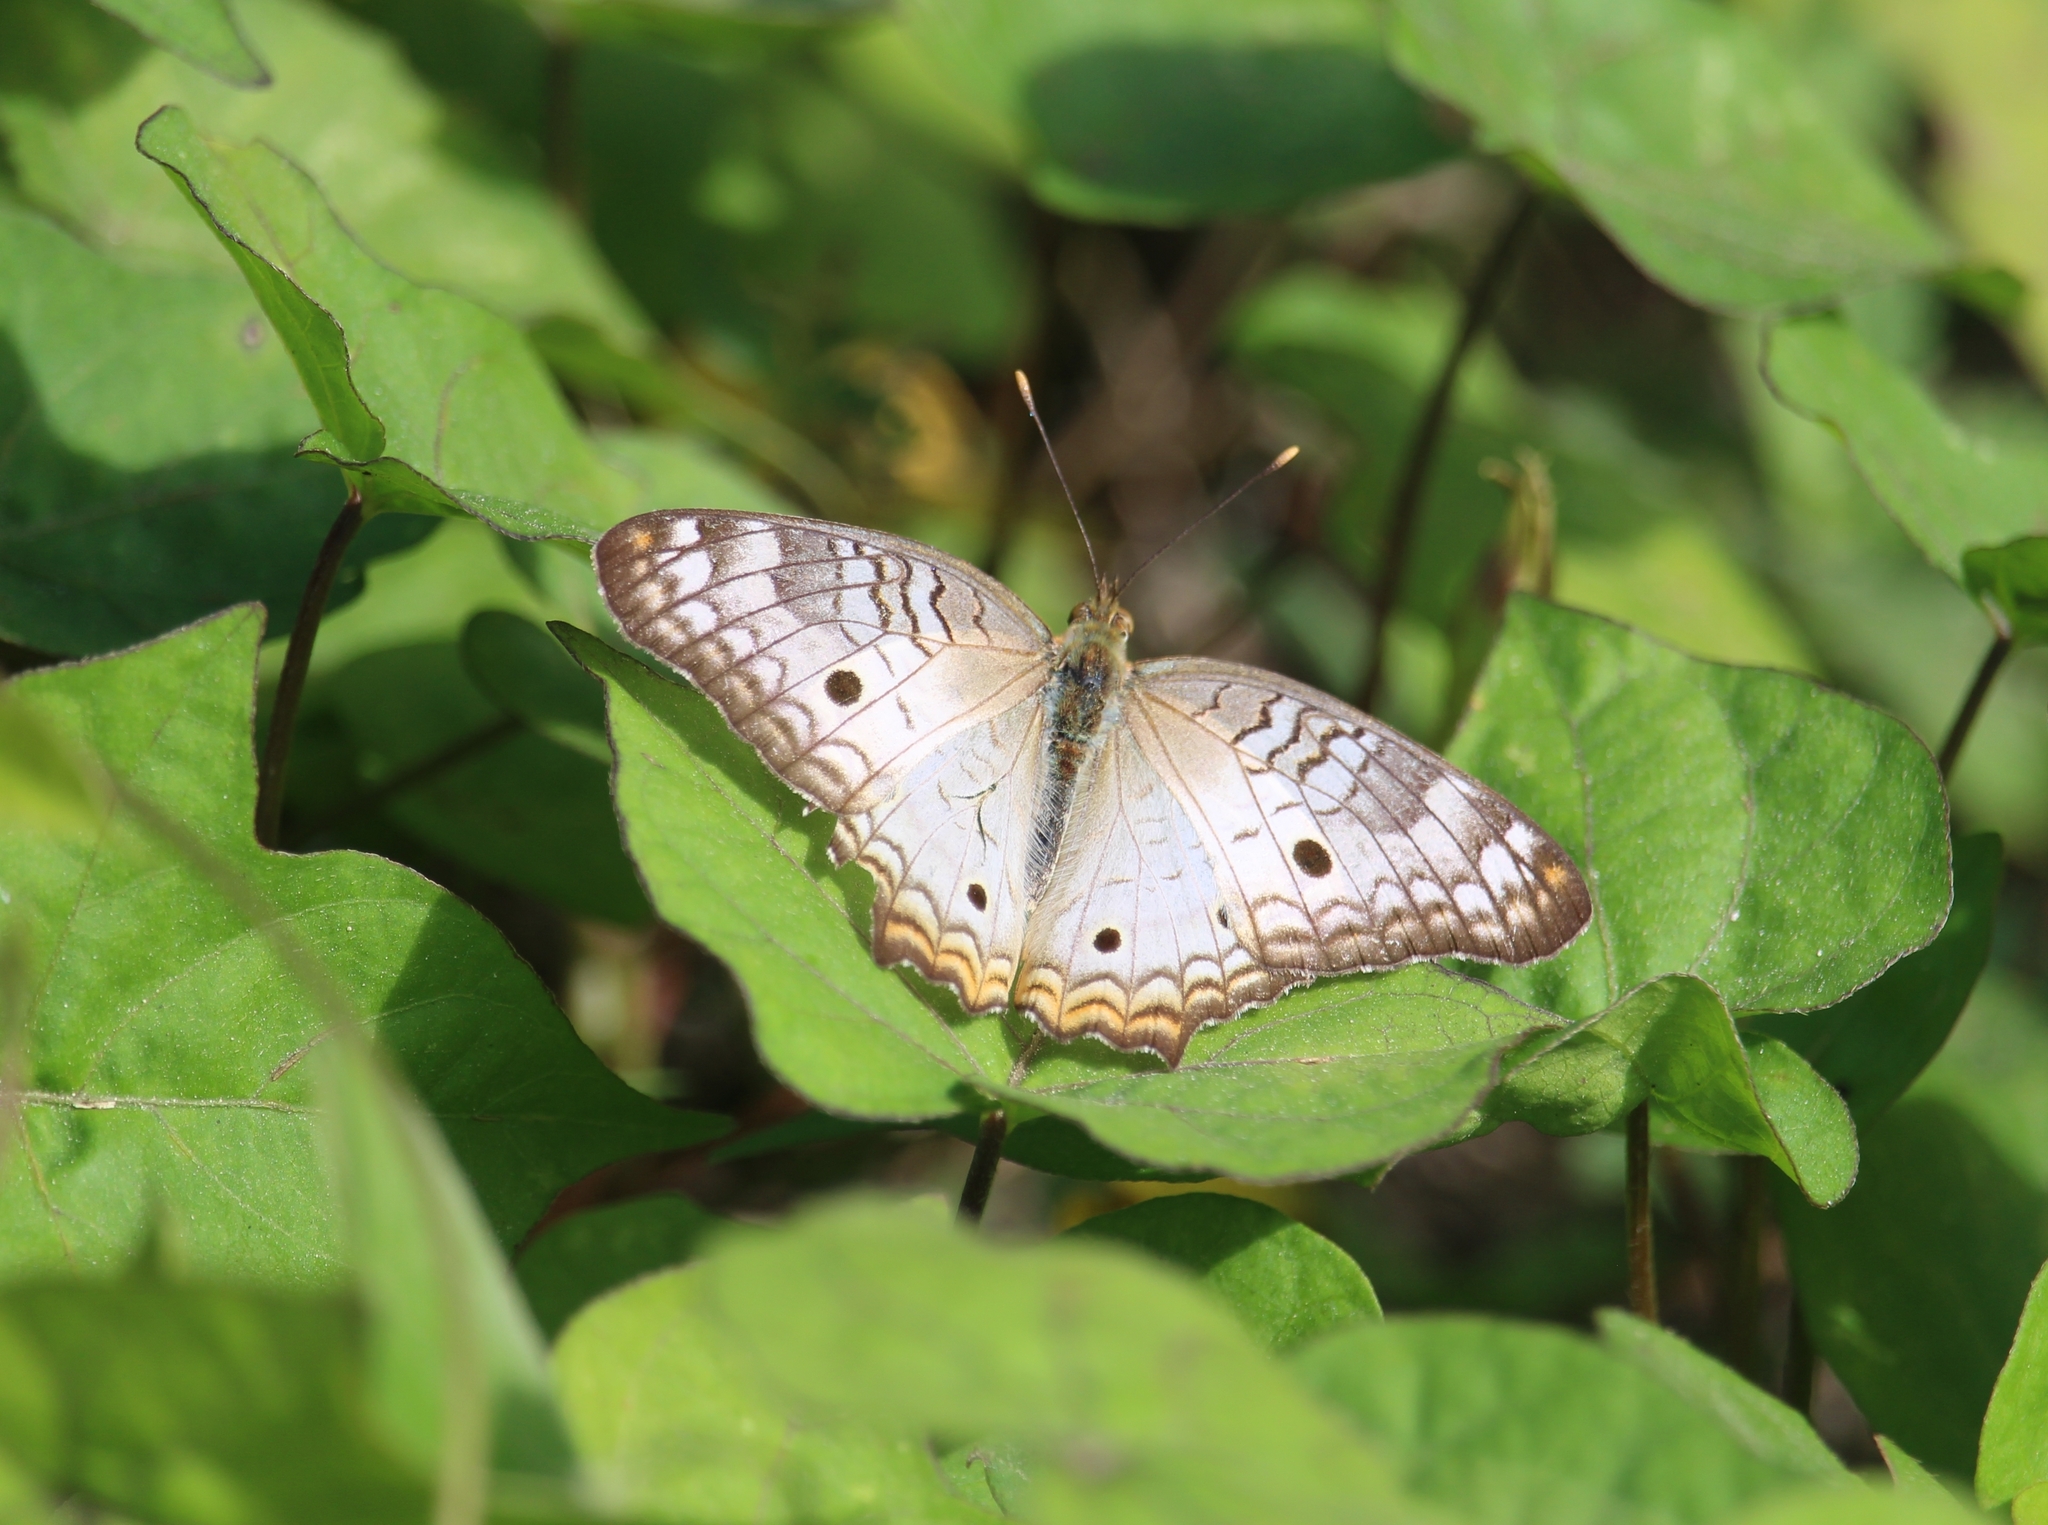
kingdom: Animalia
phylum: Arthropoda
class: Insecta
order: Lepidoptera
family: Nymphalidae
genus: Anartia
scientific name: Anartia jatrophae
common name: White peacock
